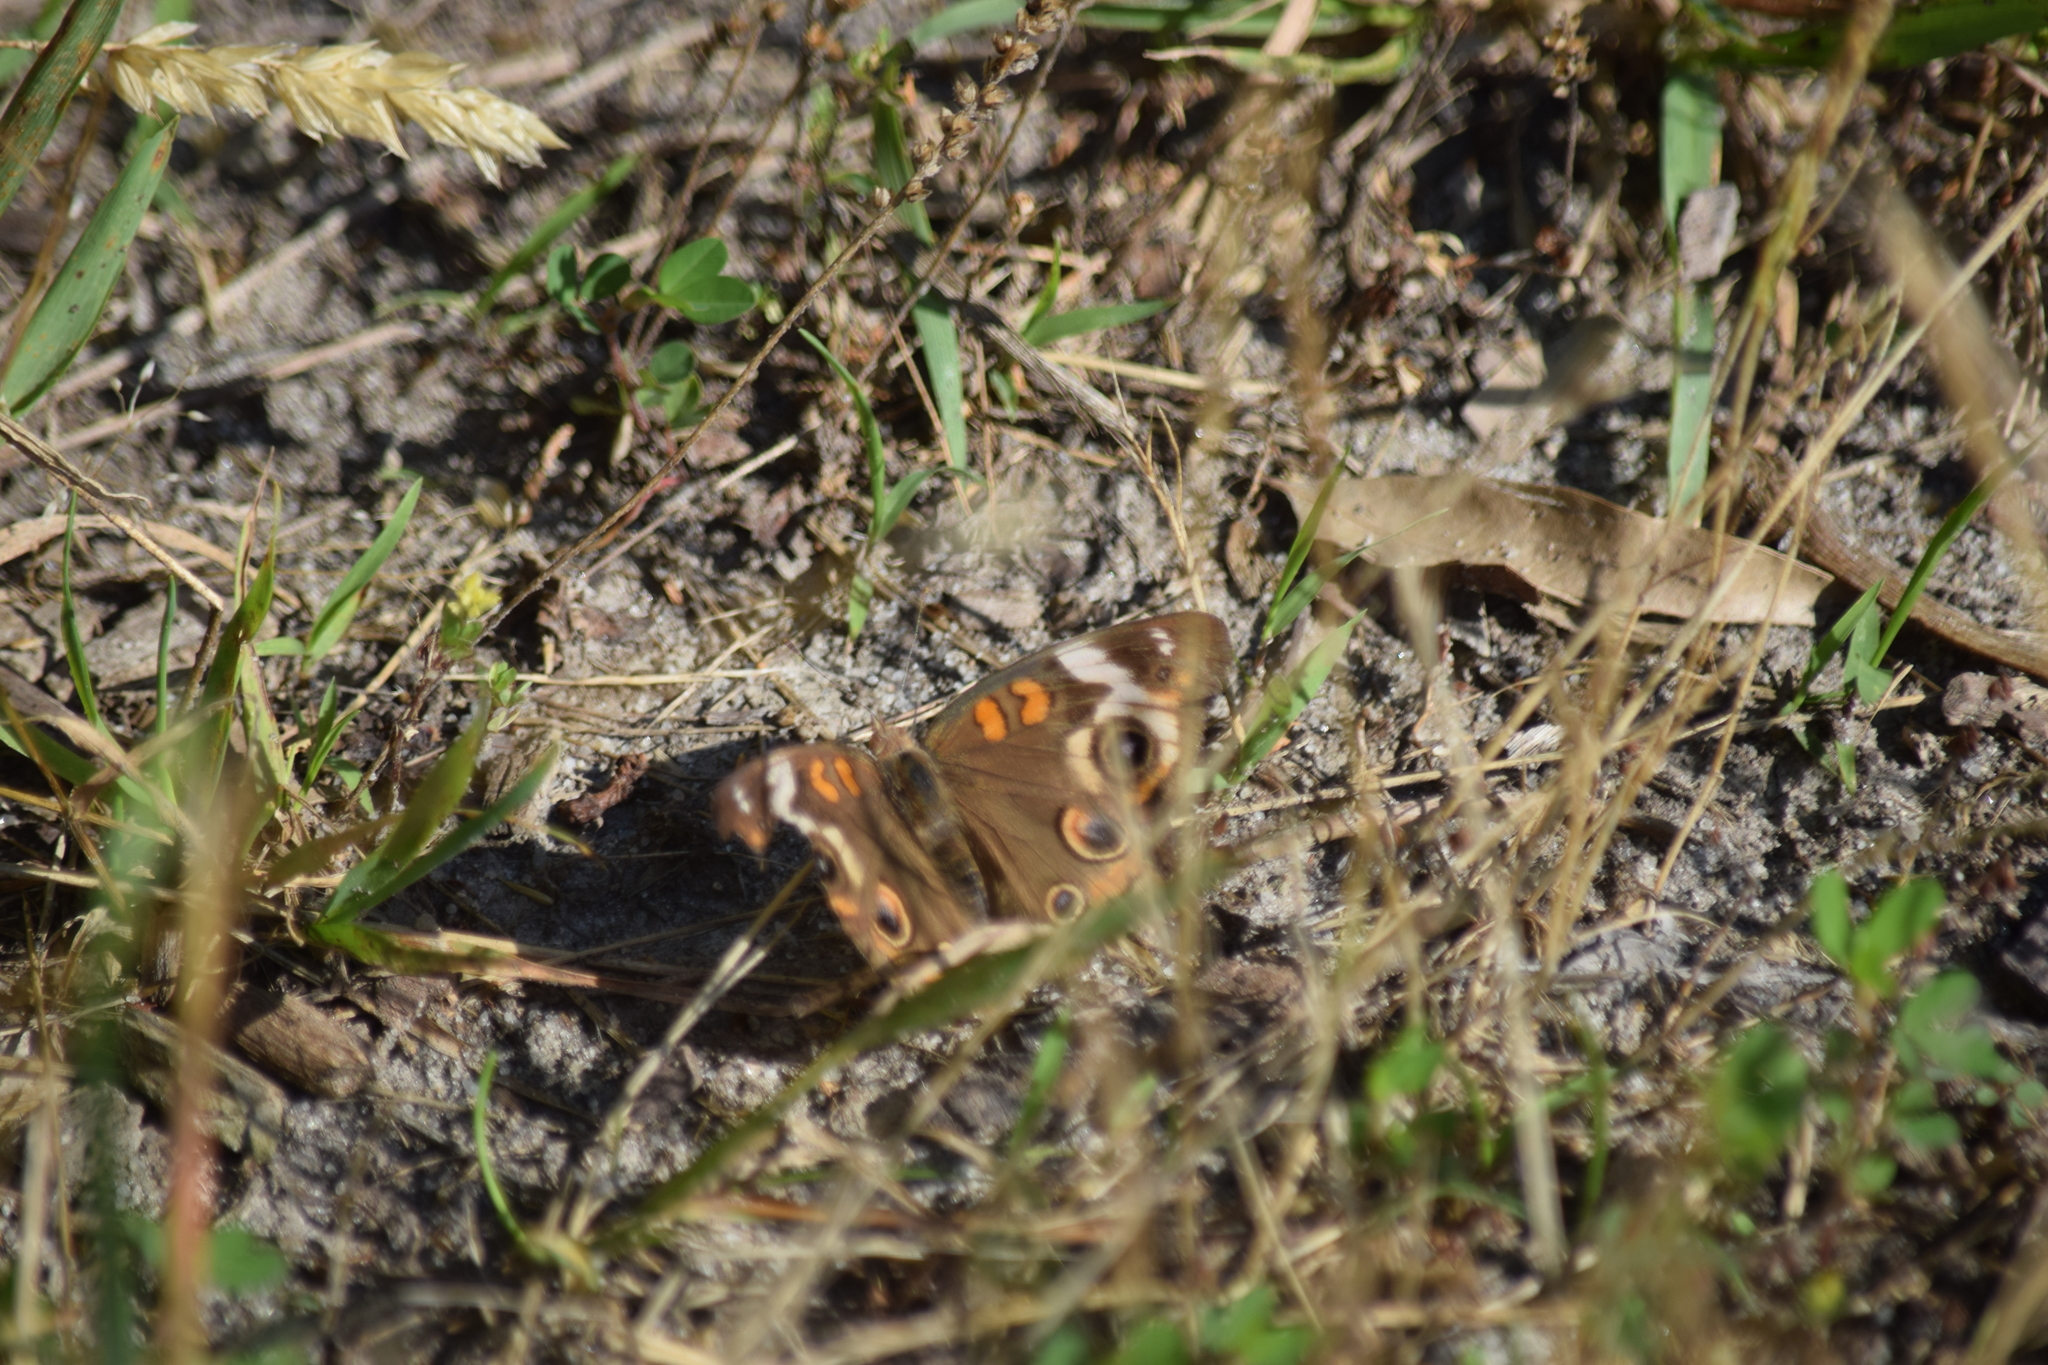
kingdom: Animalia
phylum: Arthropoda
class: Insecta
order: Lepidoptera
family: Nymphalidae
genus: Junonia
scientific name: Junonia coenia
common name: Common buckeye
